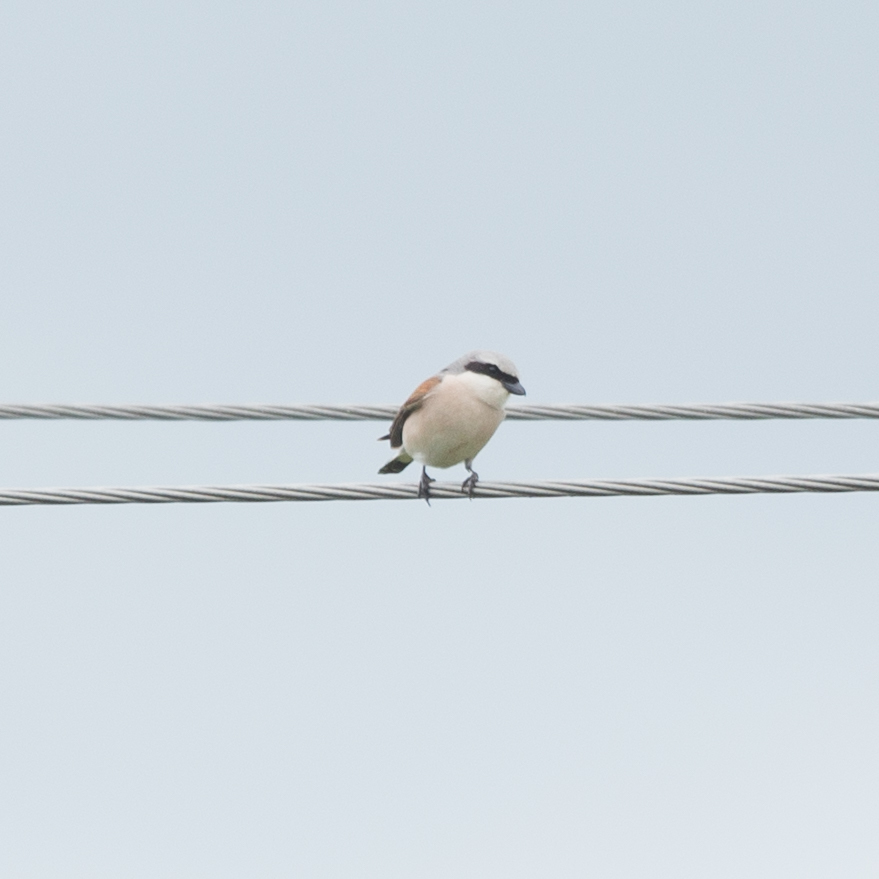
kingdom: Animalia
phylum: Chordata
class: Aves
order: Passeriformes
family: Laniidae
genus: Lanius
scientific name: Lanius collurio
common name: Red-backed shrike
